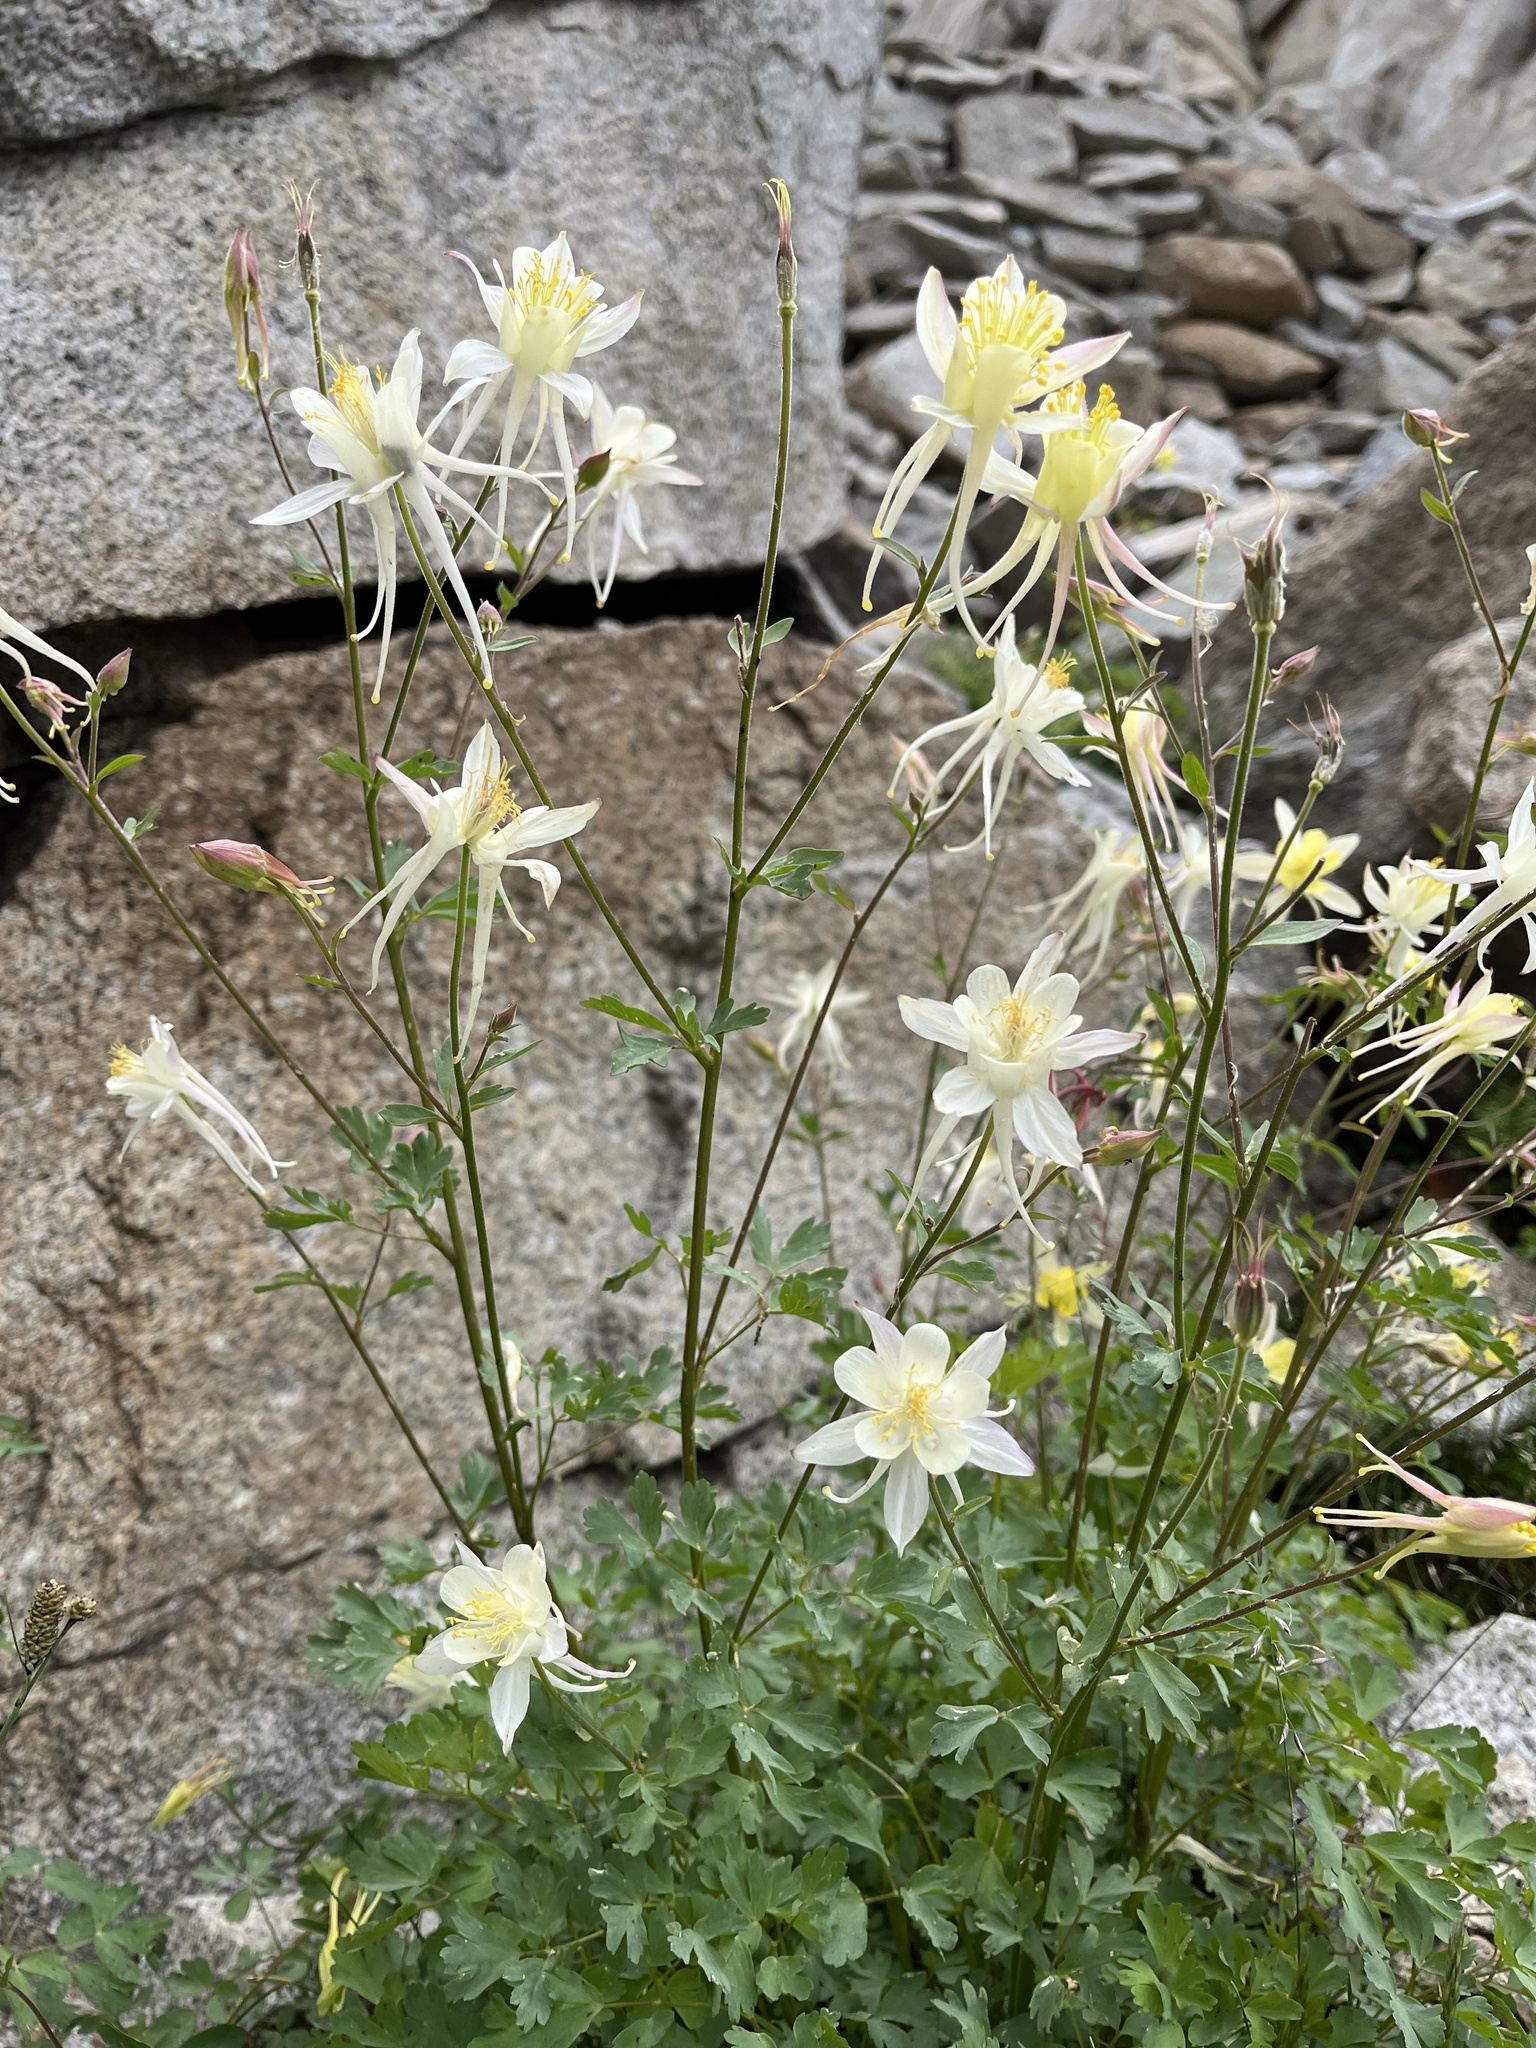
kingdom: Plantae
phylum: Tracheophyta
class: Magnoliopsida
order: Ranunculales
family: Ranunculaceae
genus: Aquilegia
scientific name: Aquilegia pubescens
